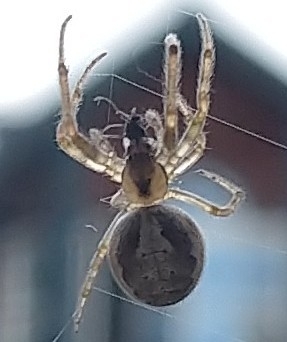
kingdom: Animalia
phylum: Arthropoda
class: Arachnida
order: Araneae
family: Araneidae
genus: Zygiella
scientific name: Zygiella x-notata
